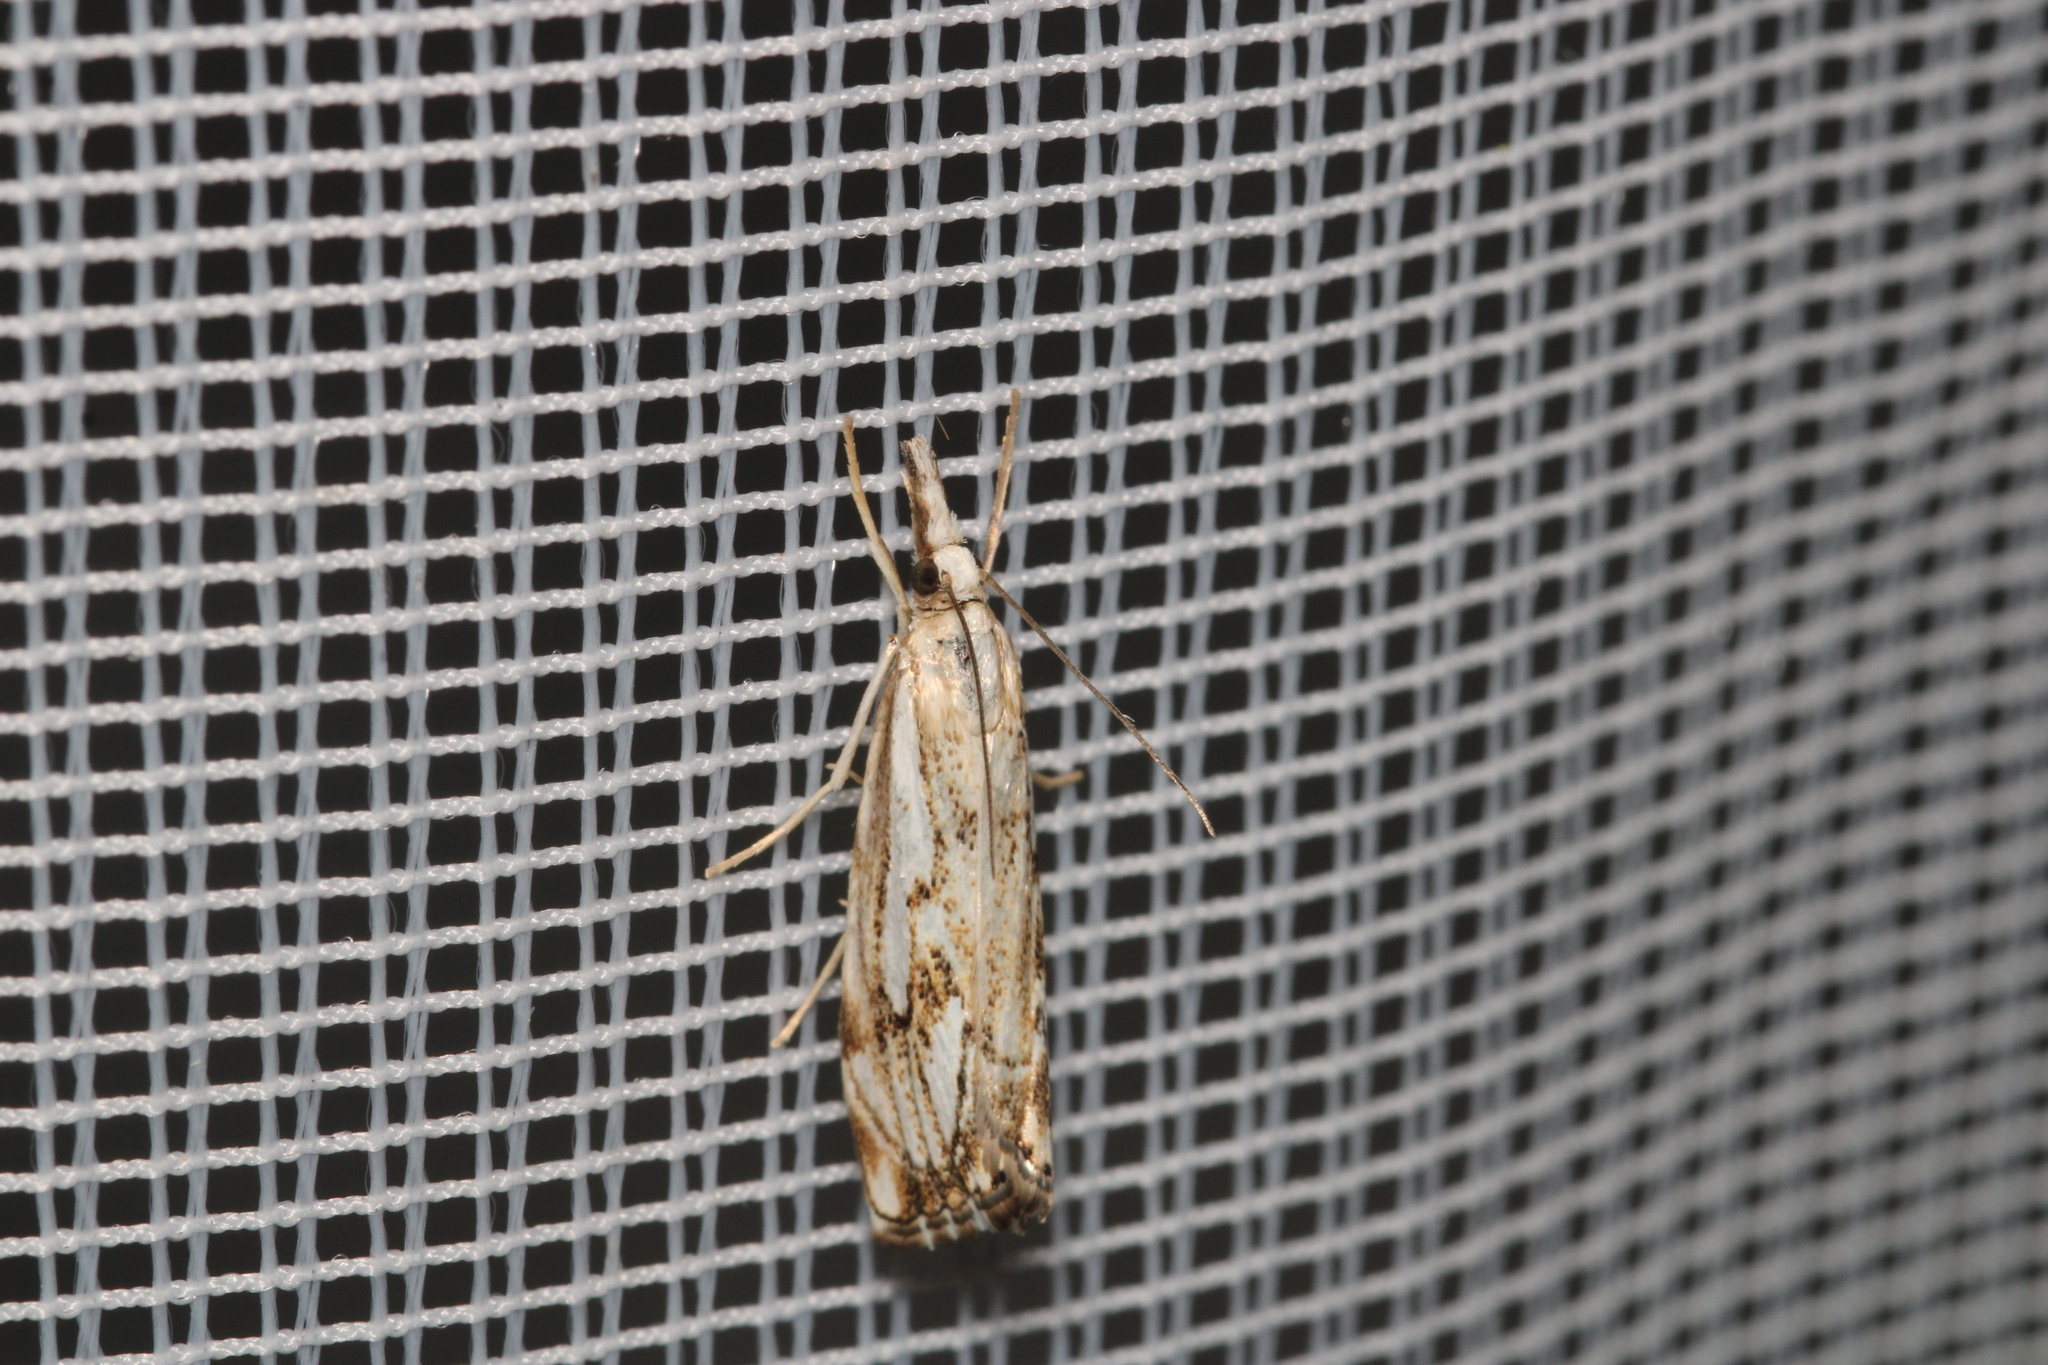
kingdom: Animalia
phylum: Arthropoda
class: Insecta
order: Lepidoptera
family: Crambidae
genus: Catoptria
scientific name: Catoptria falsella
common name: Chequered grass-veneer
